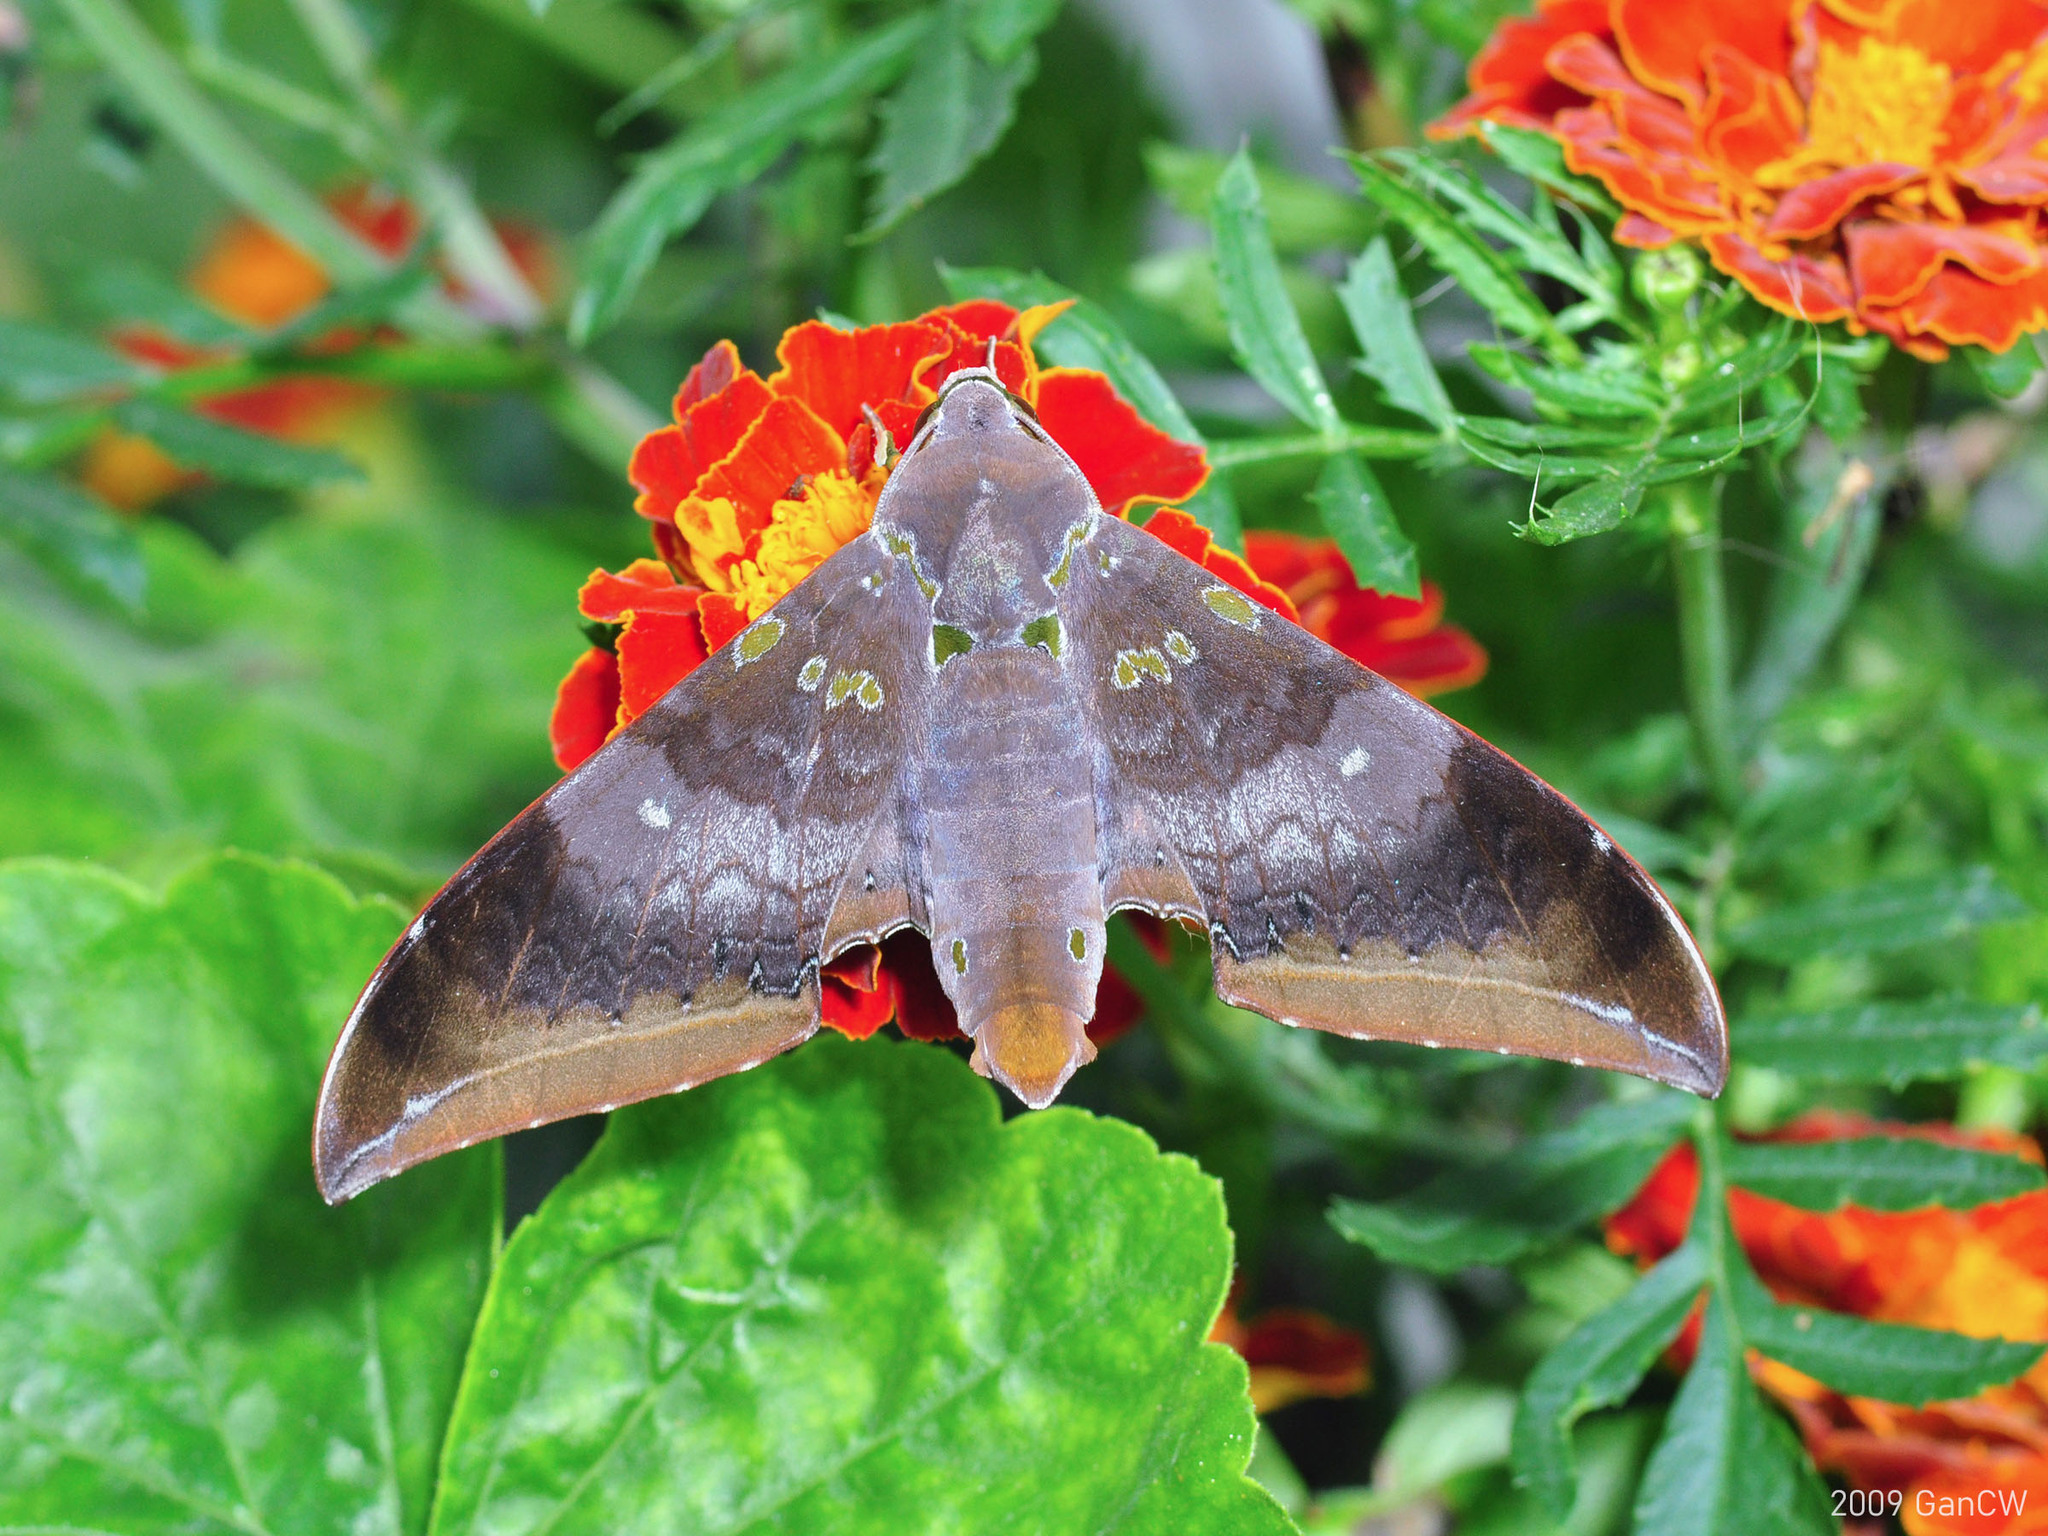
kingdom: Animalia
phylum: Arthropoda
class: Insecta
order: Lepidoptera
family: Sphingidae
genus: Ambulyx
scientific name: Ambulyx moorei
